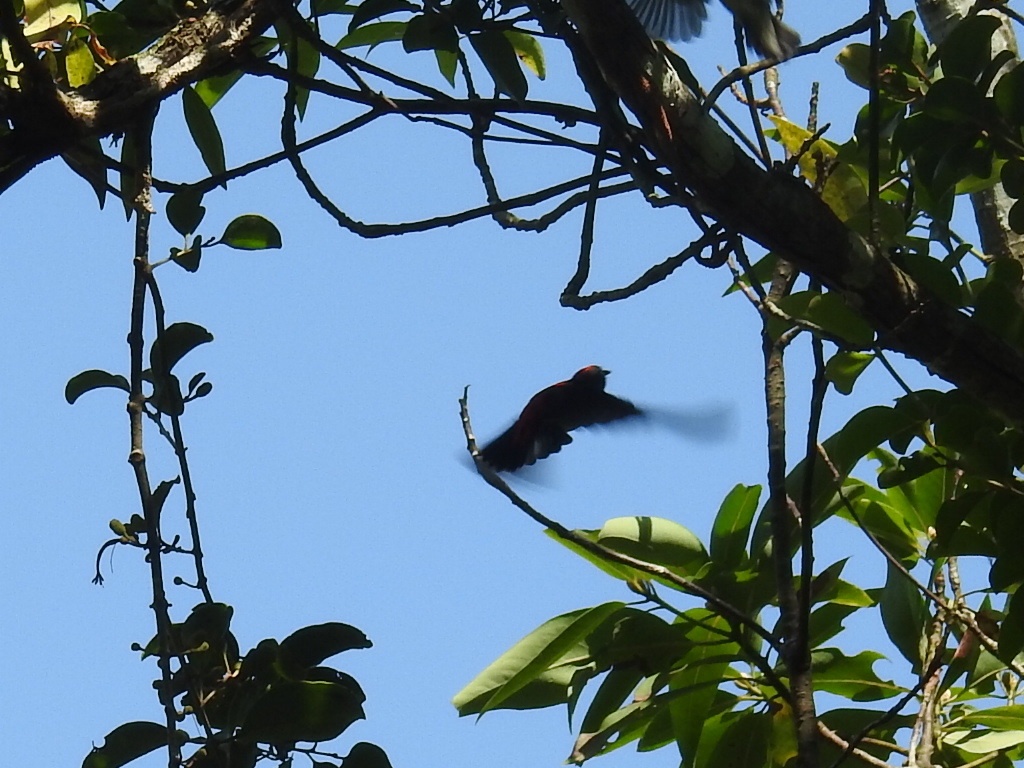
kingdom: Animalia
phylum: Chordata
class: Aves
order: Passeriformes
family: Dicaeidae
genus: Dicaeum
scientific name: Dicaeum cruentatum
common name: Scarlet-backed flowerpecker
